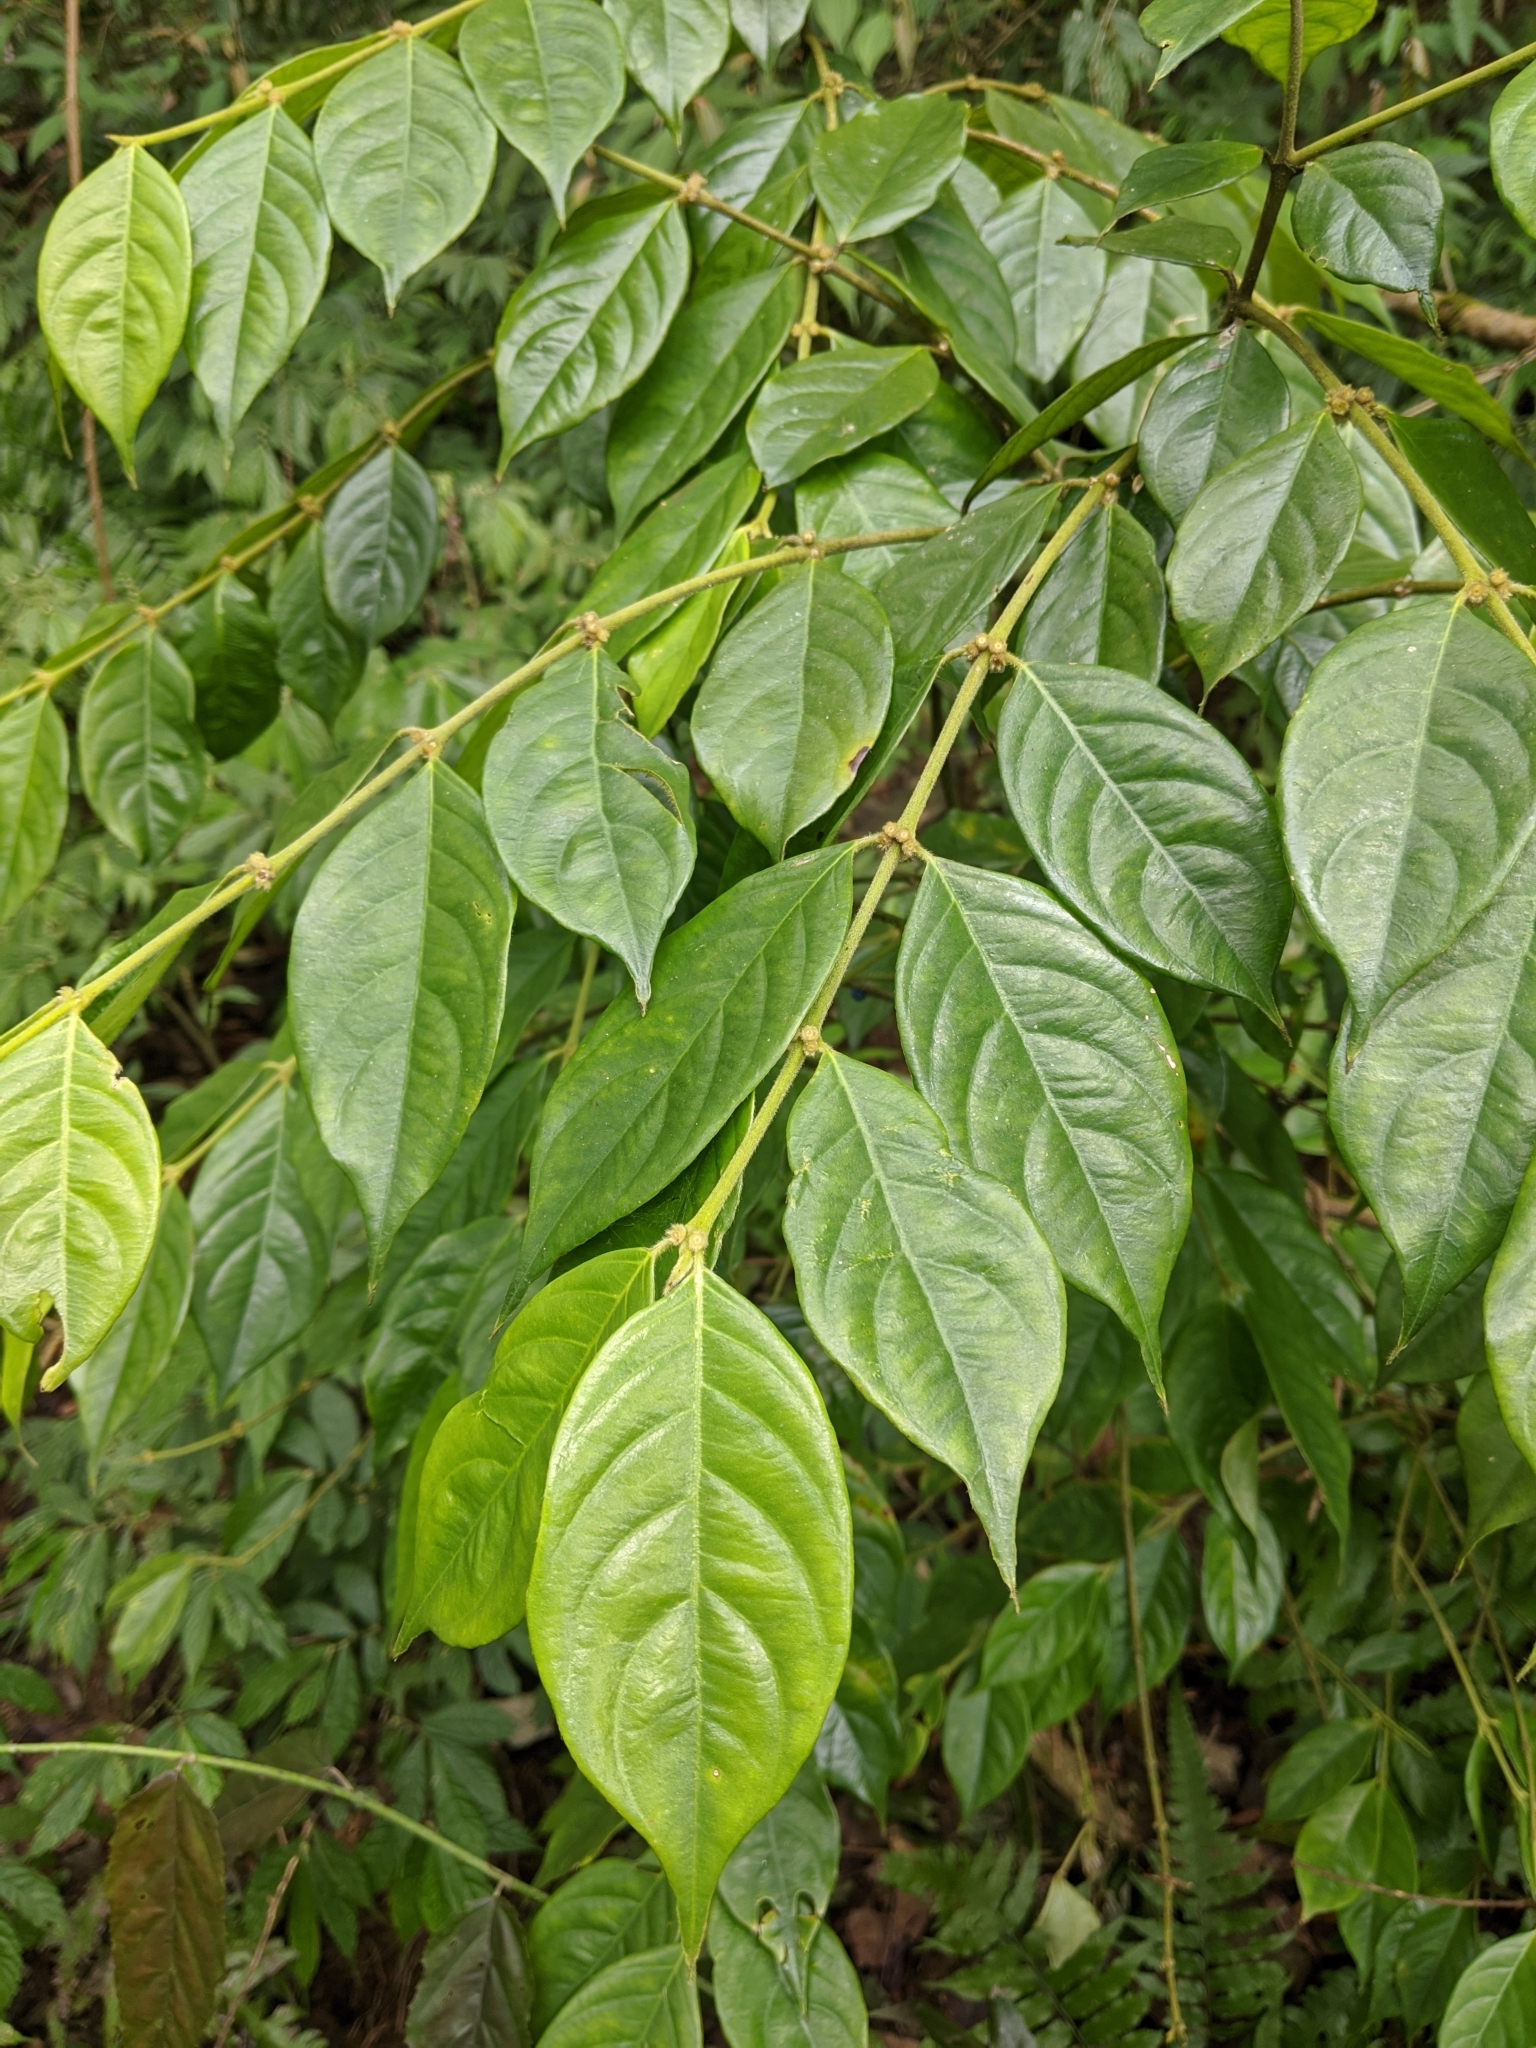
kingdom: Plantae
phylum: Tracheophyta
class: Magnoliopsida
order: Gentianales
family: Rubiaceae
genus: Lasianthus
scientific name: Lasianthus hispidulus
